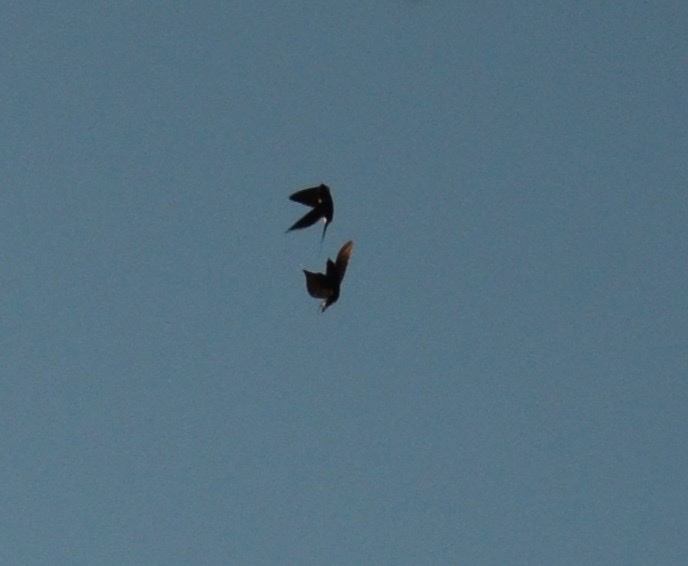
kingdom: Animalia
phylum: Chordata
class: Aves
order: Passeriformes
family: Hirundinidae
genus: Hirundo
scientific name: Hirundo rustica
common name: Barn swallow
